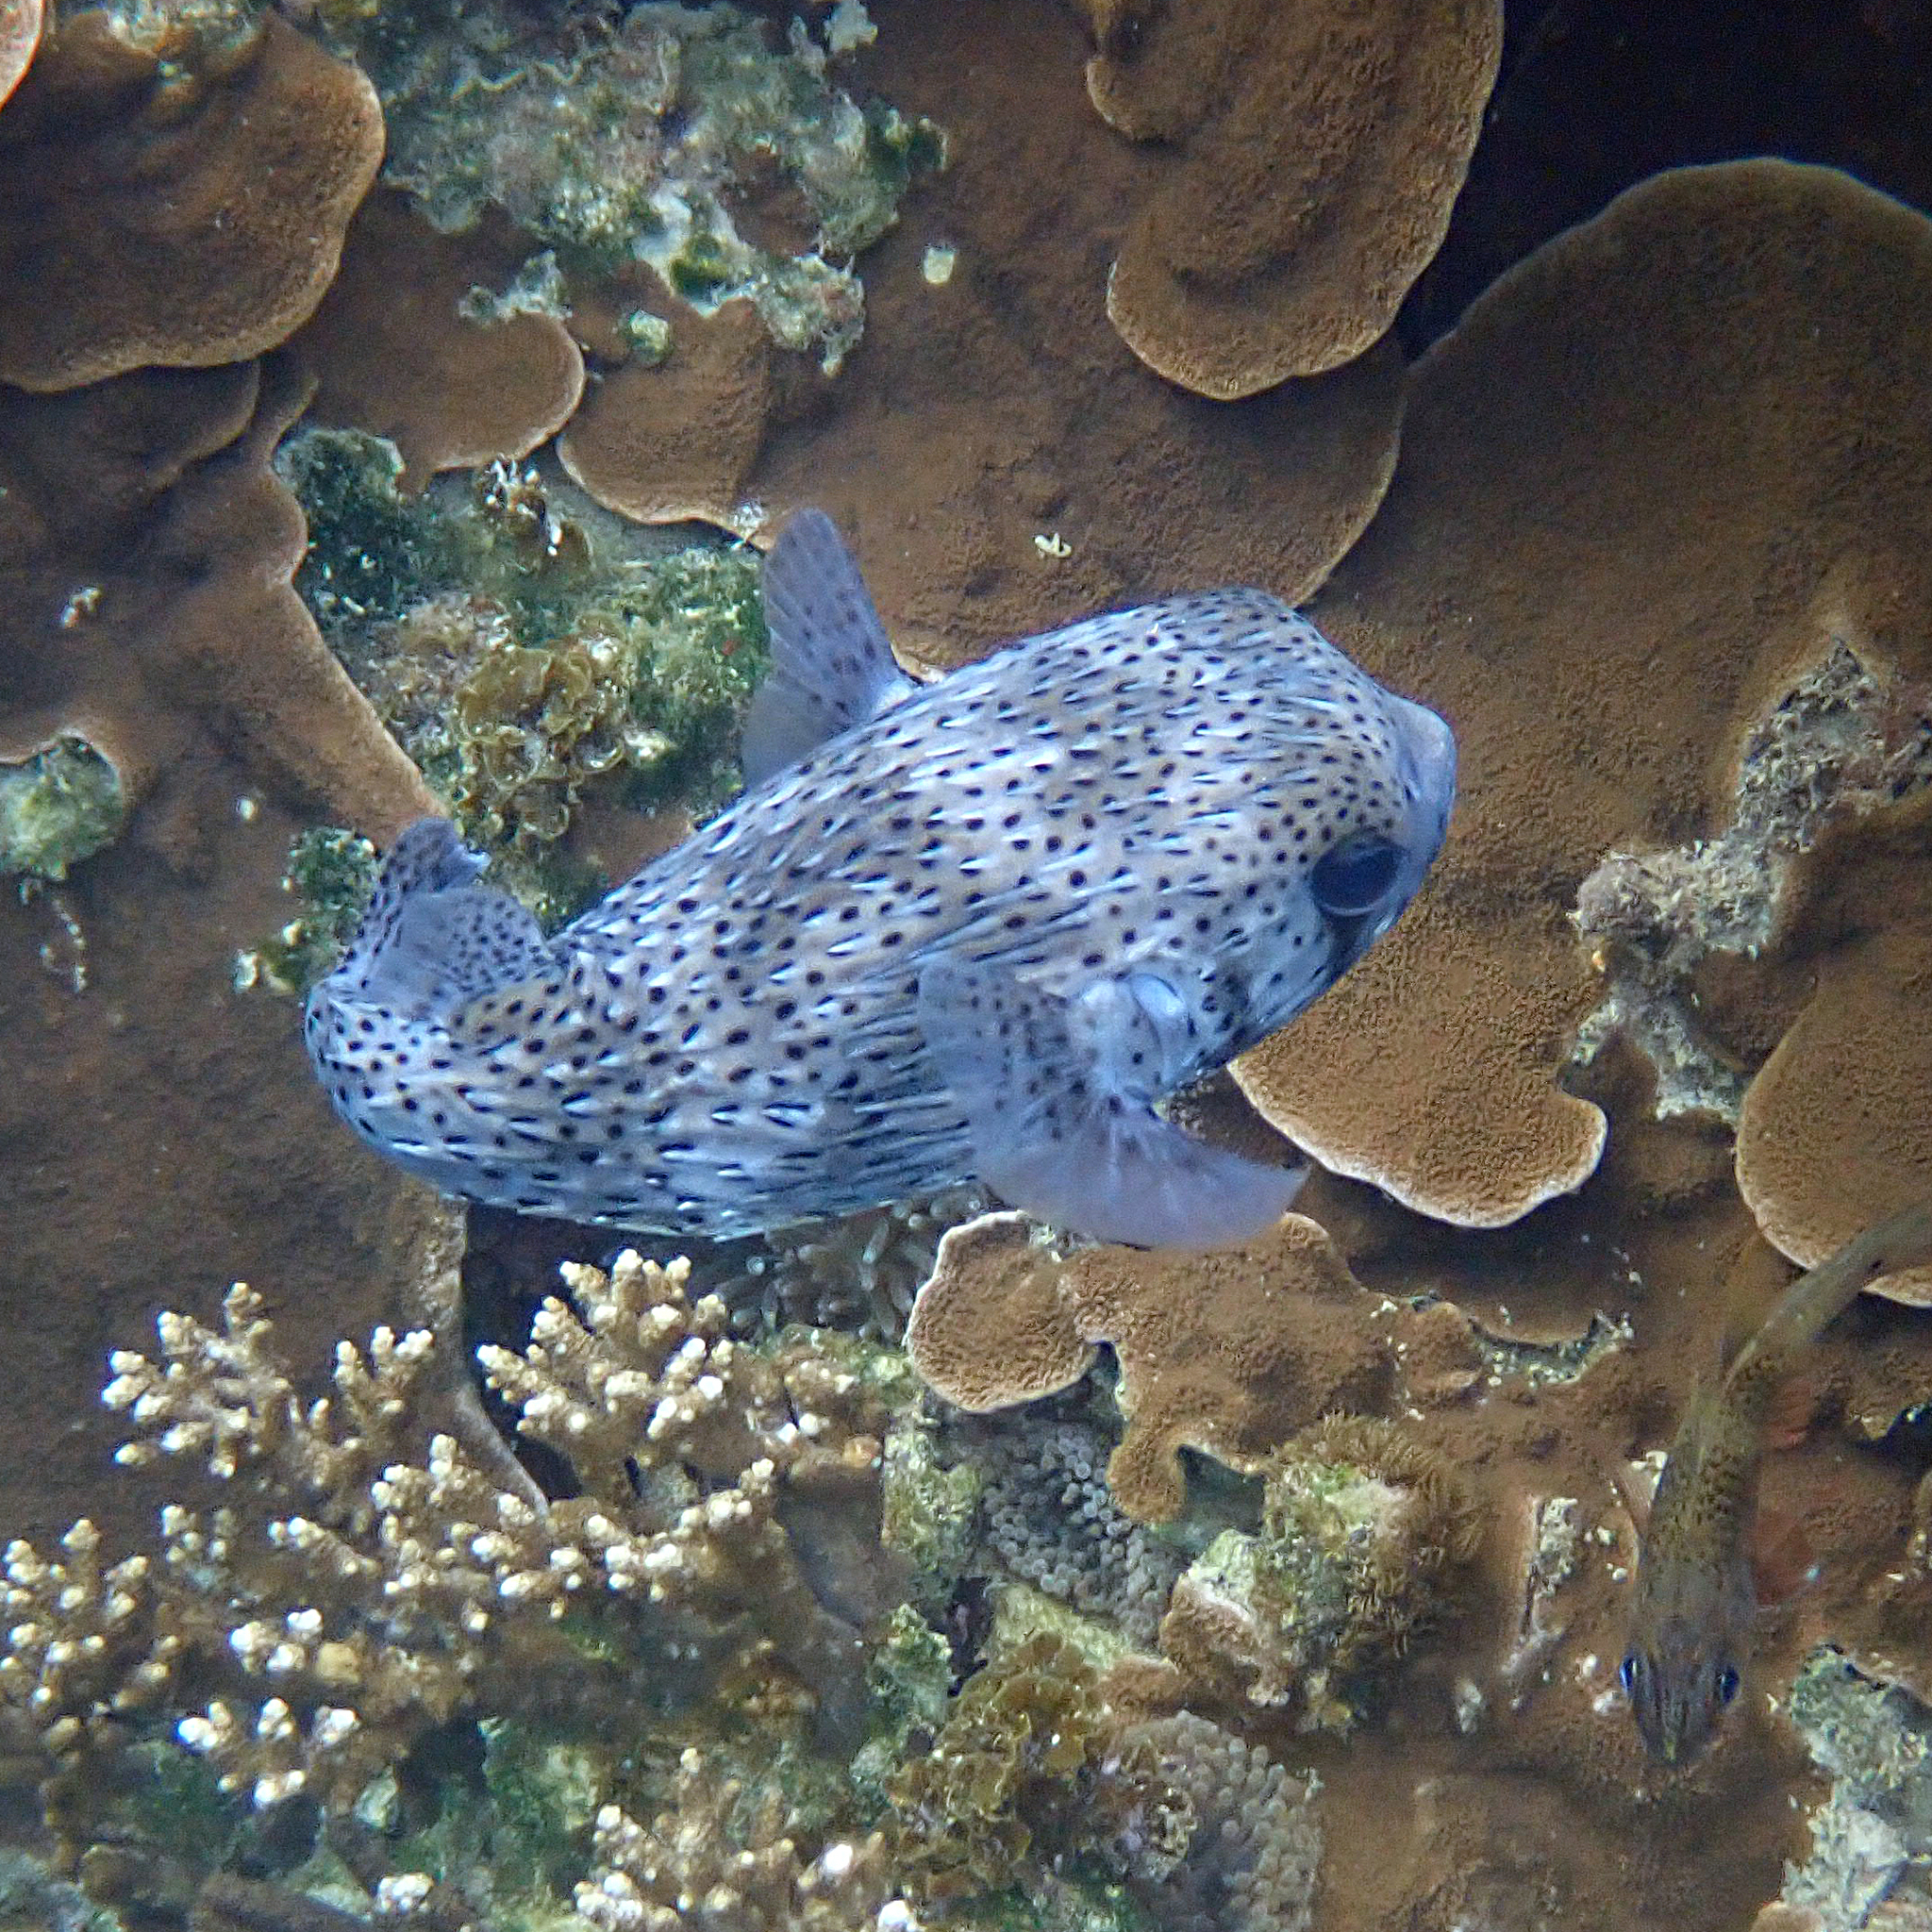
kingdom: Animalia
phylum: Chordata
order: Tetraodontiformes
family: Diodontidae
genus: Diodon
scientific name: Diodon hystrix
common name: Giant porcupinefish
